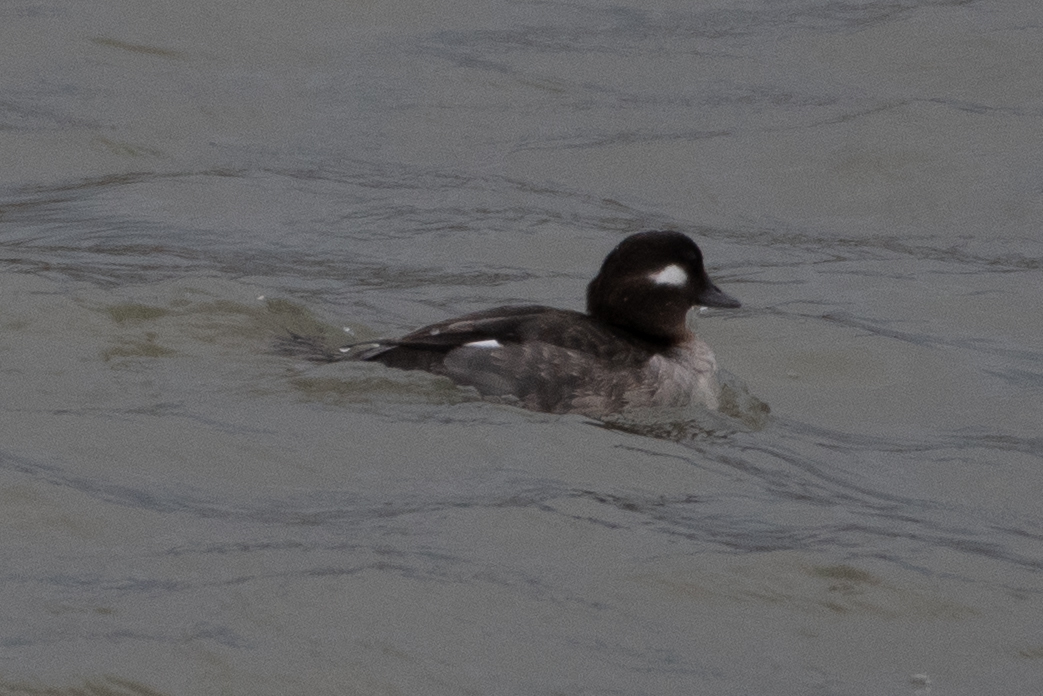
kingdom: Animalia
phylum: Chordata
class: Aves
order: Anseriformes
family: Anatidae
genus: Bucephala
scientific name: Bucephala albeola
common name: Bufflehead
